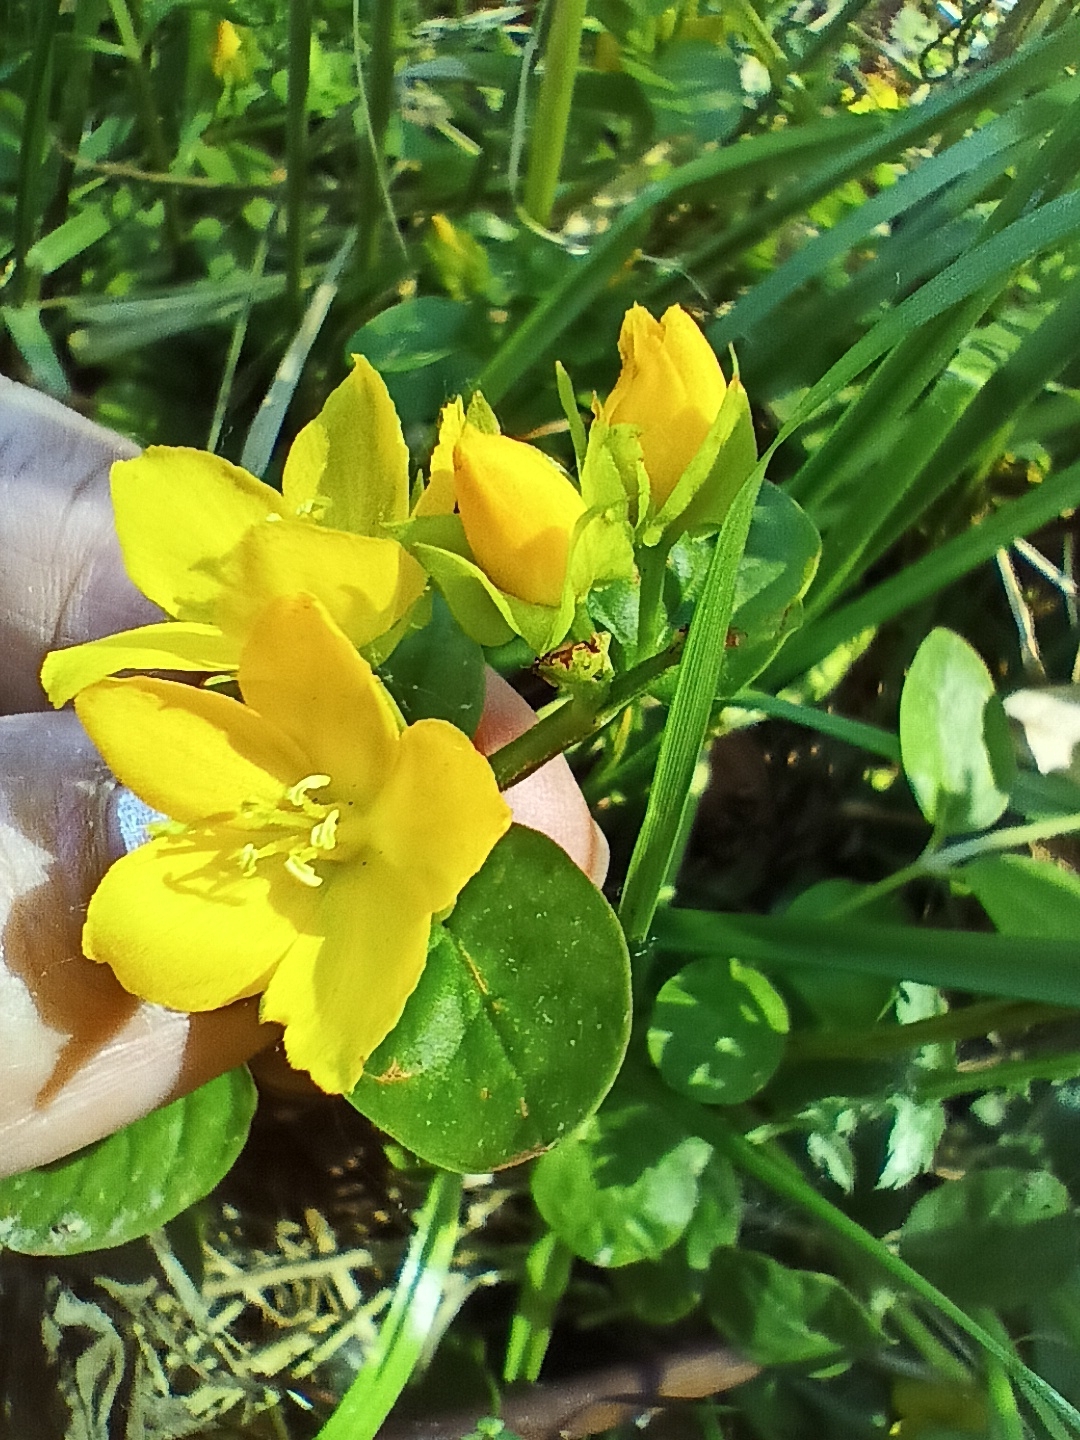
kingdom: Plantae
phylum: Tracheophyta
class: Magnoliopsida
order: Ericales
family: Primulaceae
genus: Lysimachia
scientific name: Lysimachia nummularia
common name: Moneywort
